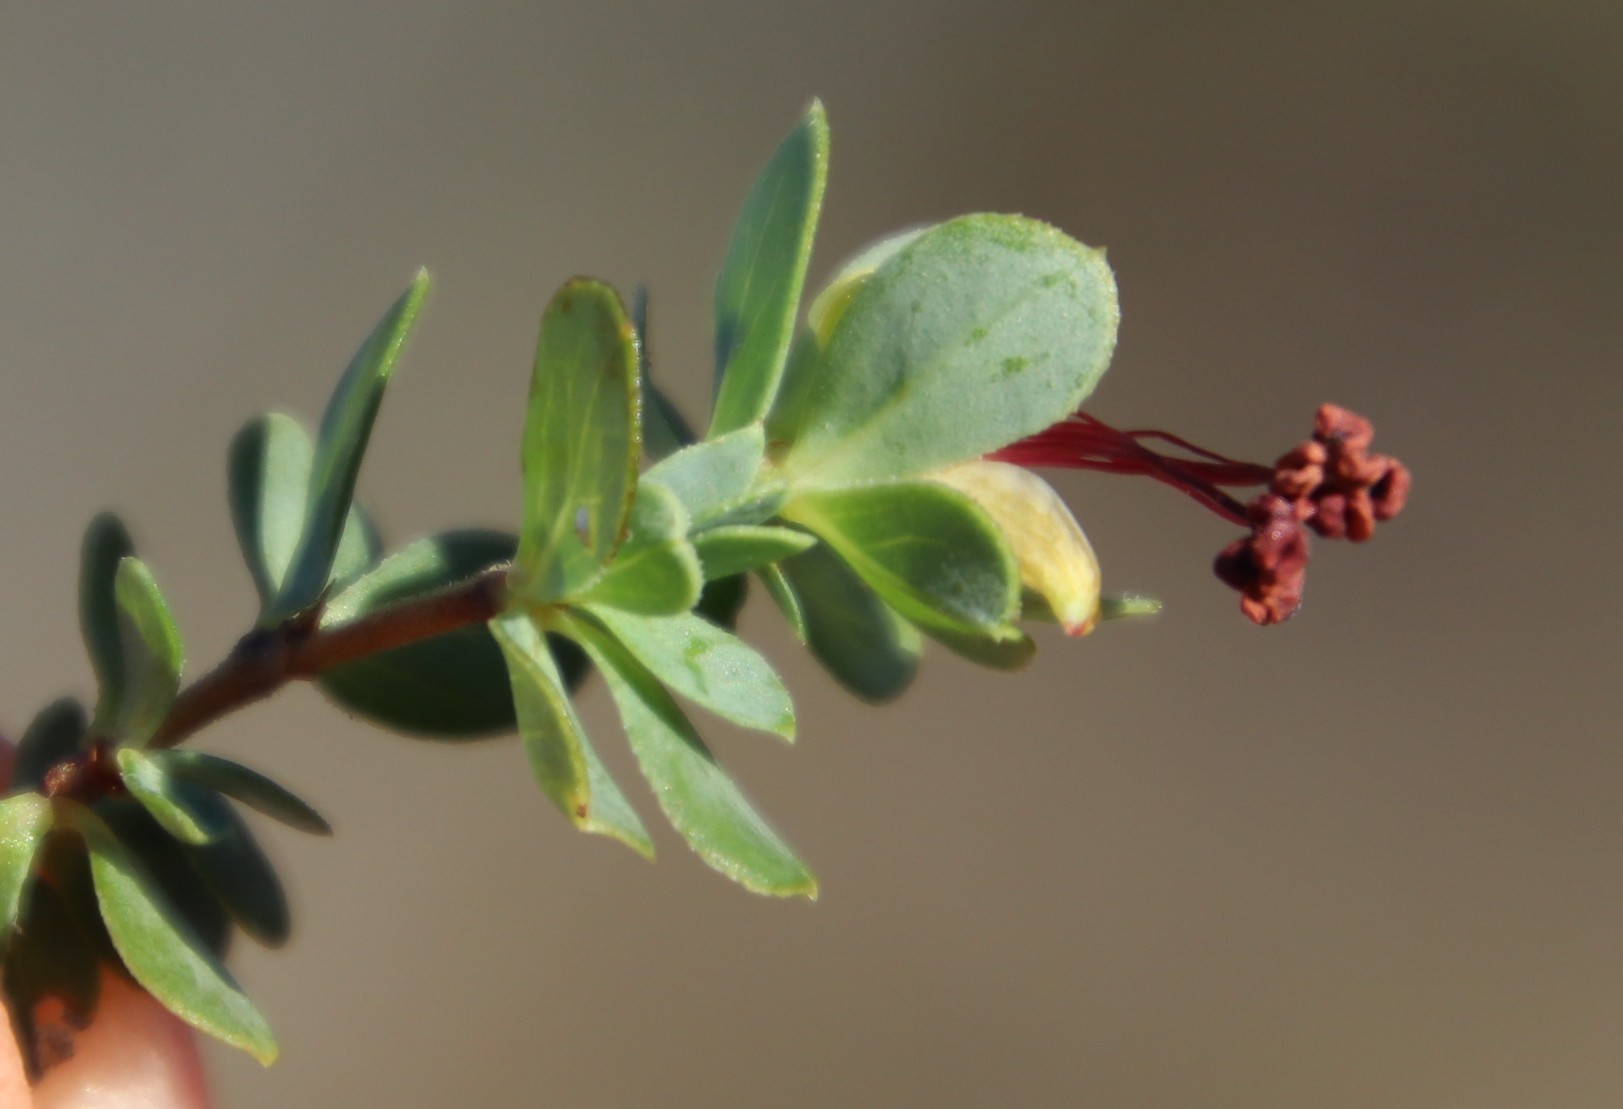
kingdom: Plantae
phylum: Tracheophyta
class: Magnoliopsida
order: Rosales
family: Rosaceae
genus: Cliffortia
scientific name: Cliffortia carinata
